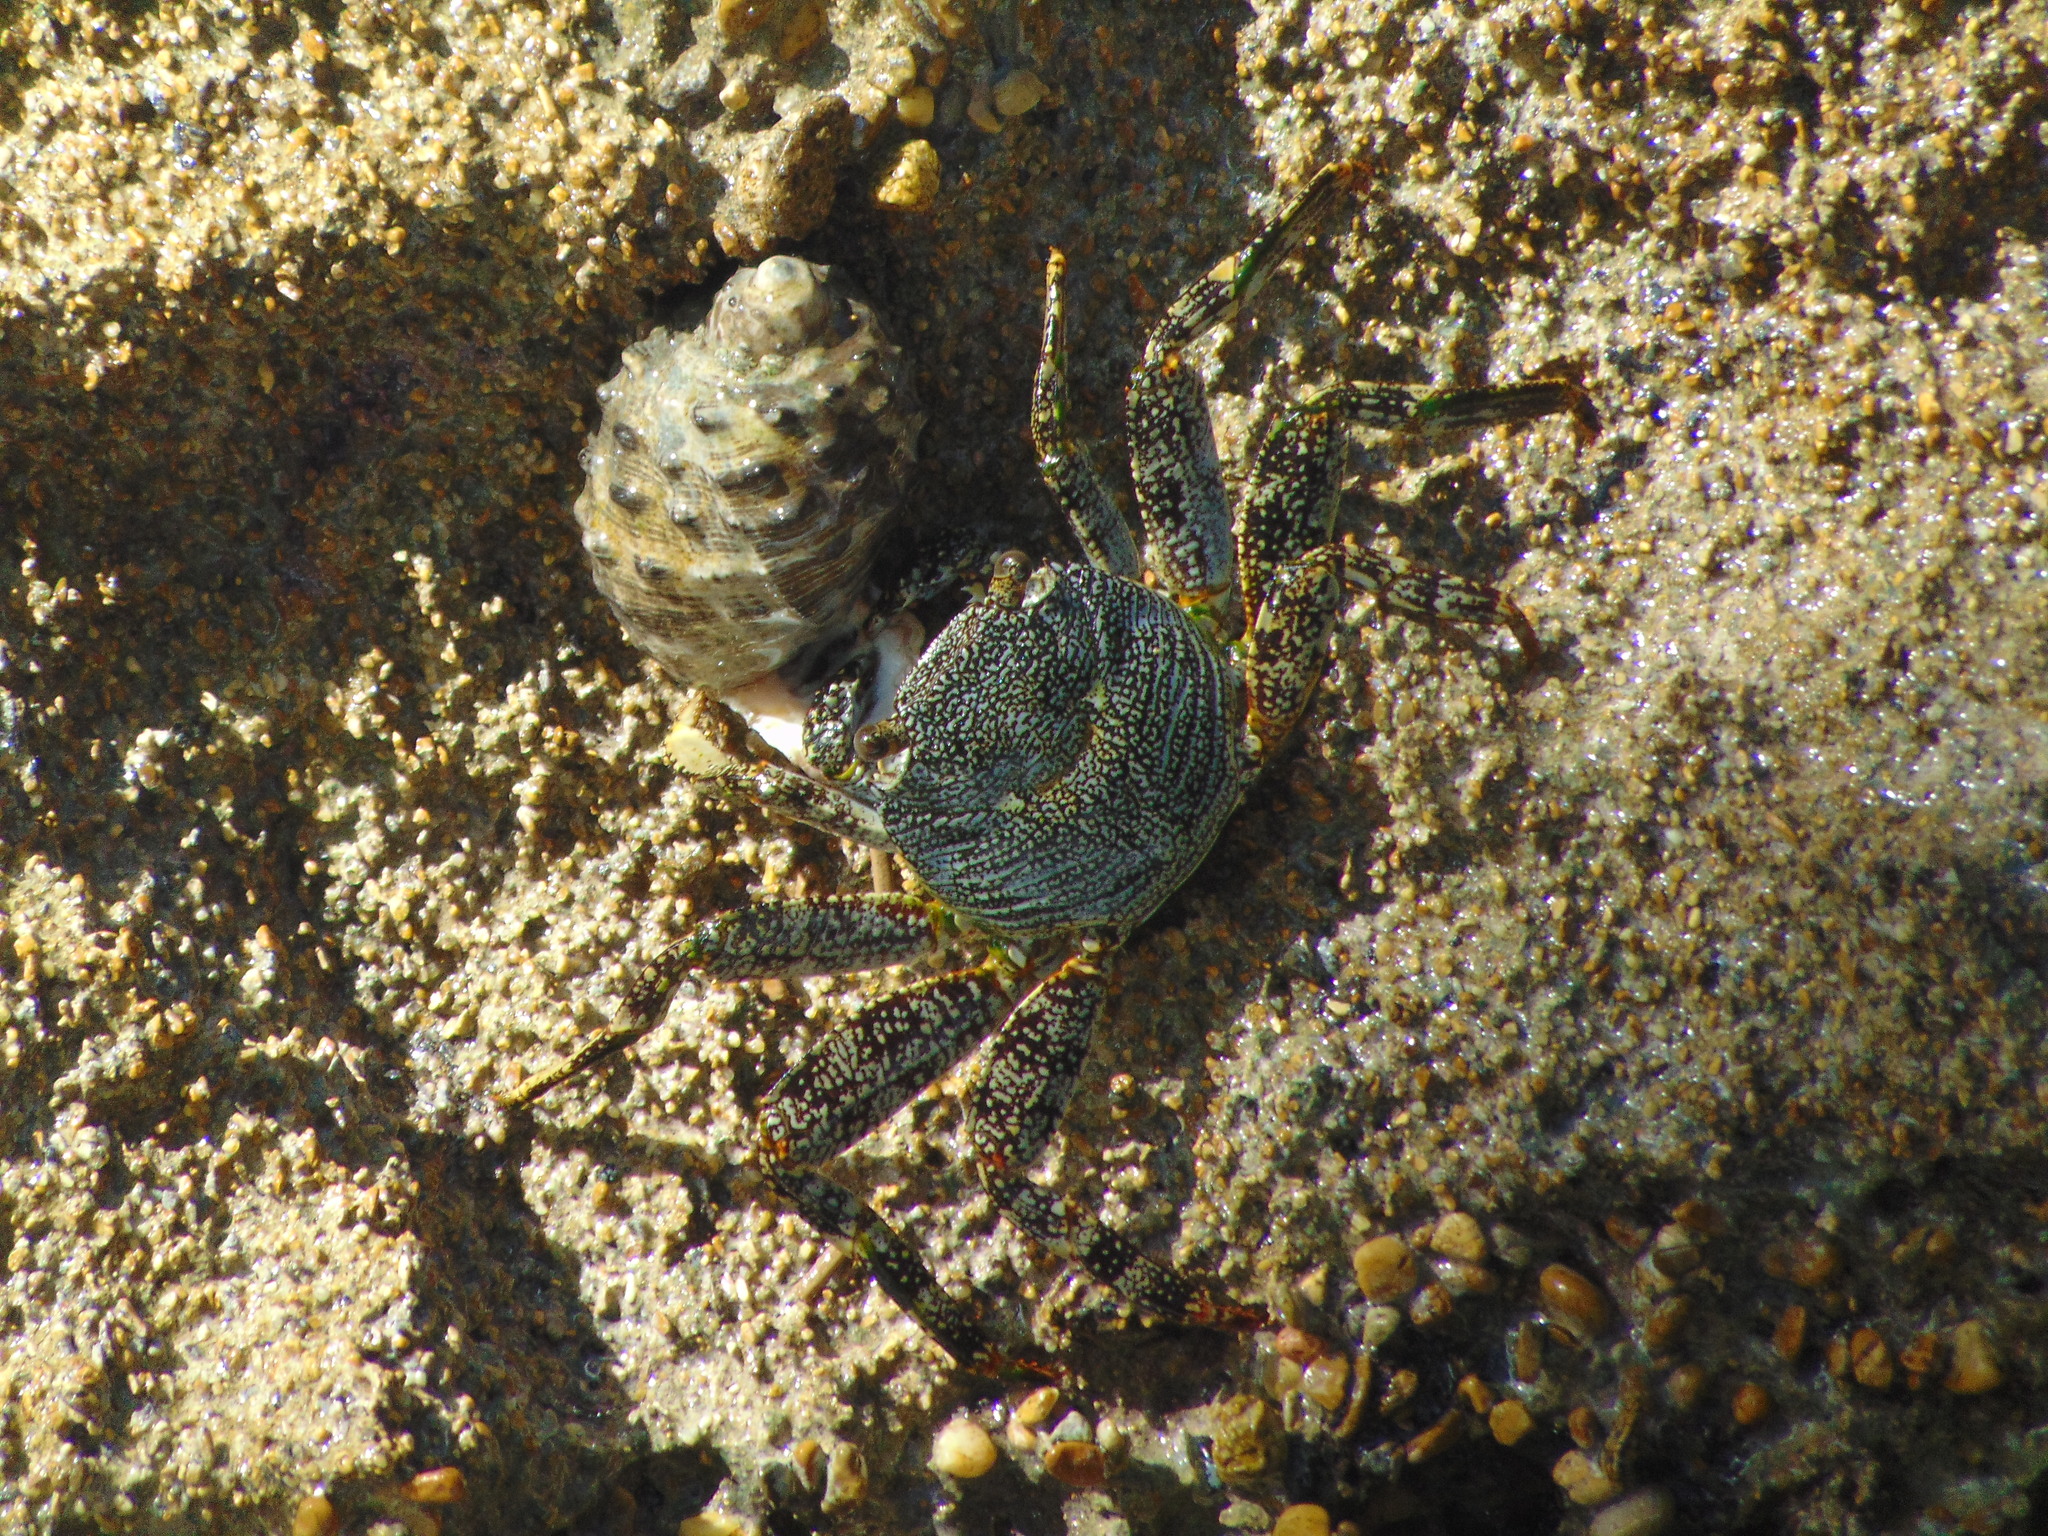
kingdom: Animalia
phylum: Arthropoda
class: Malacostraca
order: Decapoda
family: Grapsidae
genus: Grapsus
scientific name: Grapsus grapsus
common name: Sally lightfoot
